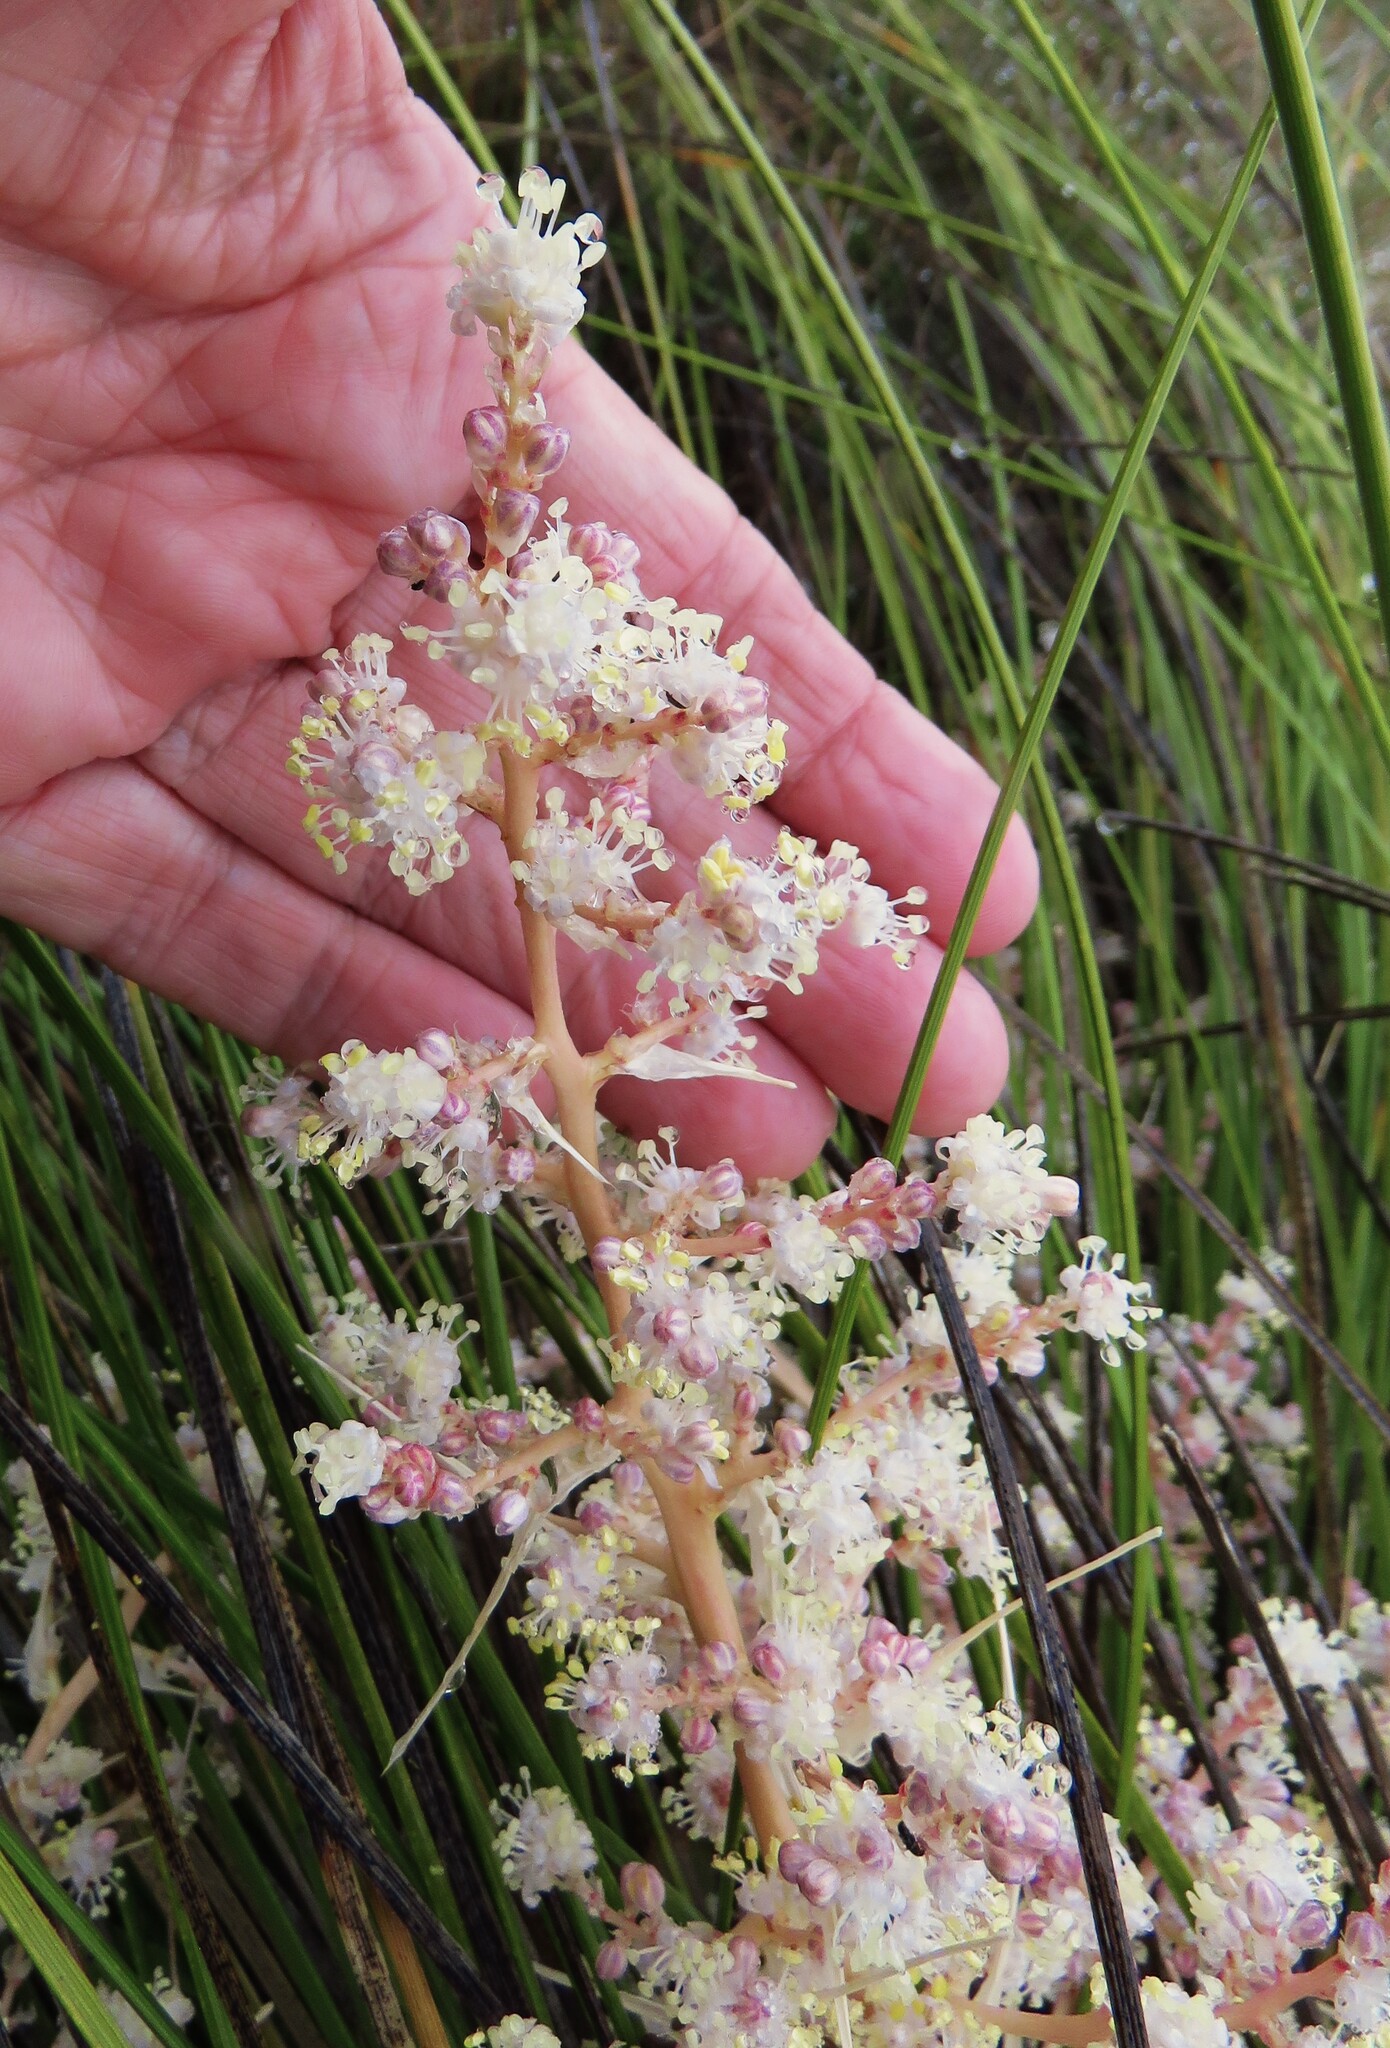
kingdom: Plantae
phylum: Tracheophyta
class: Liliopsida
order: Asparagales
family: Asparagaceae
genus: Nolina
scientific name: Nolina texana
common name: Texas sacahuiste
